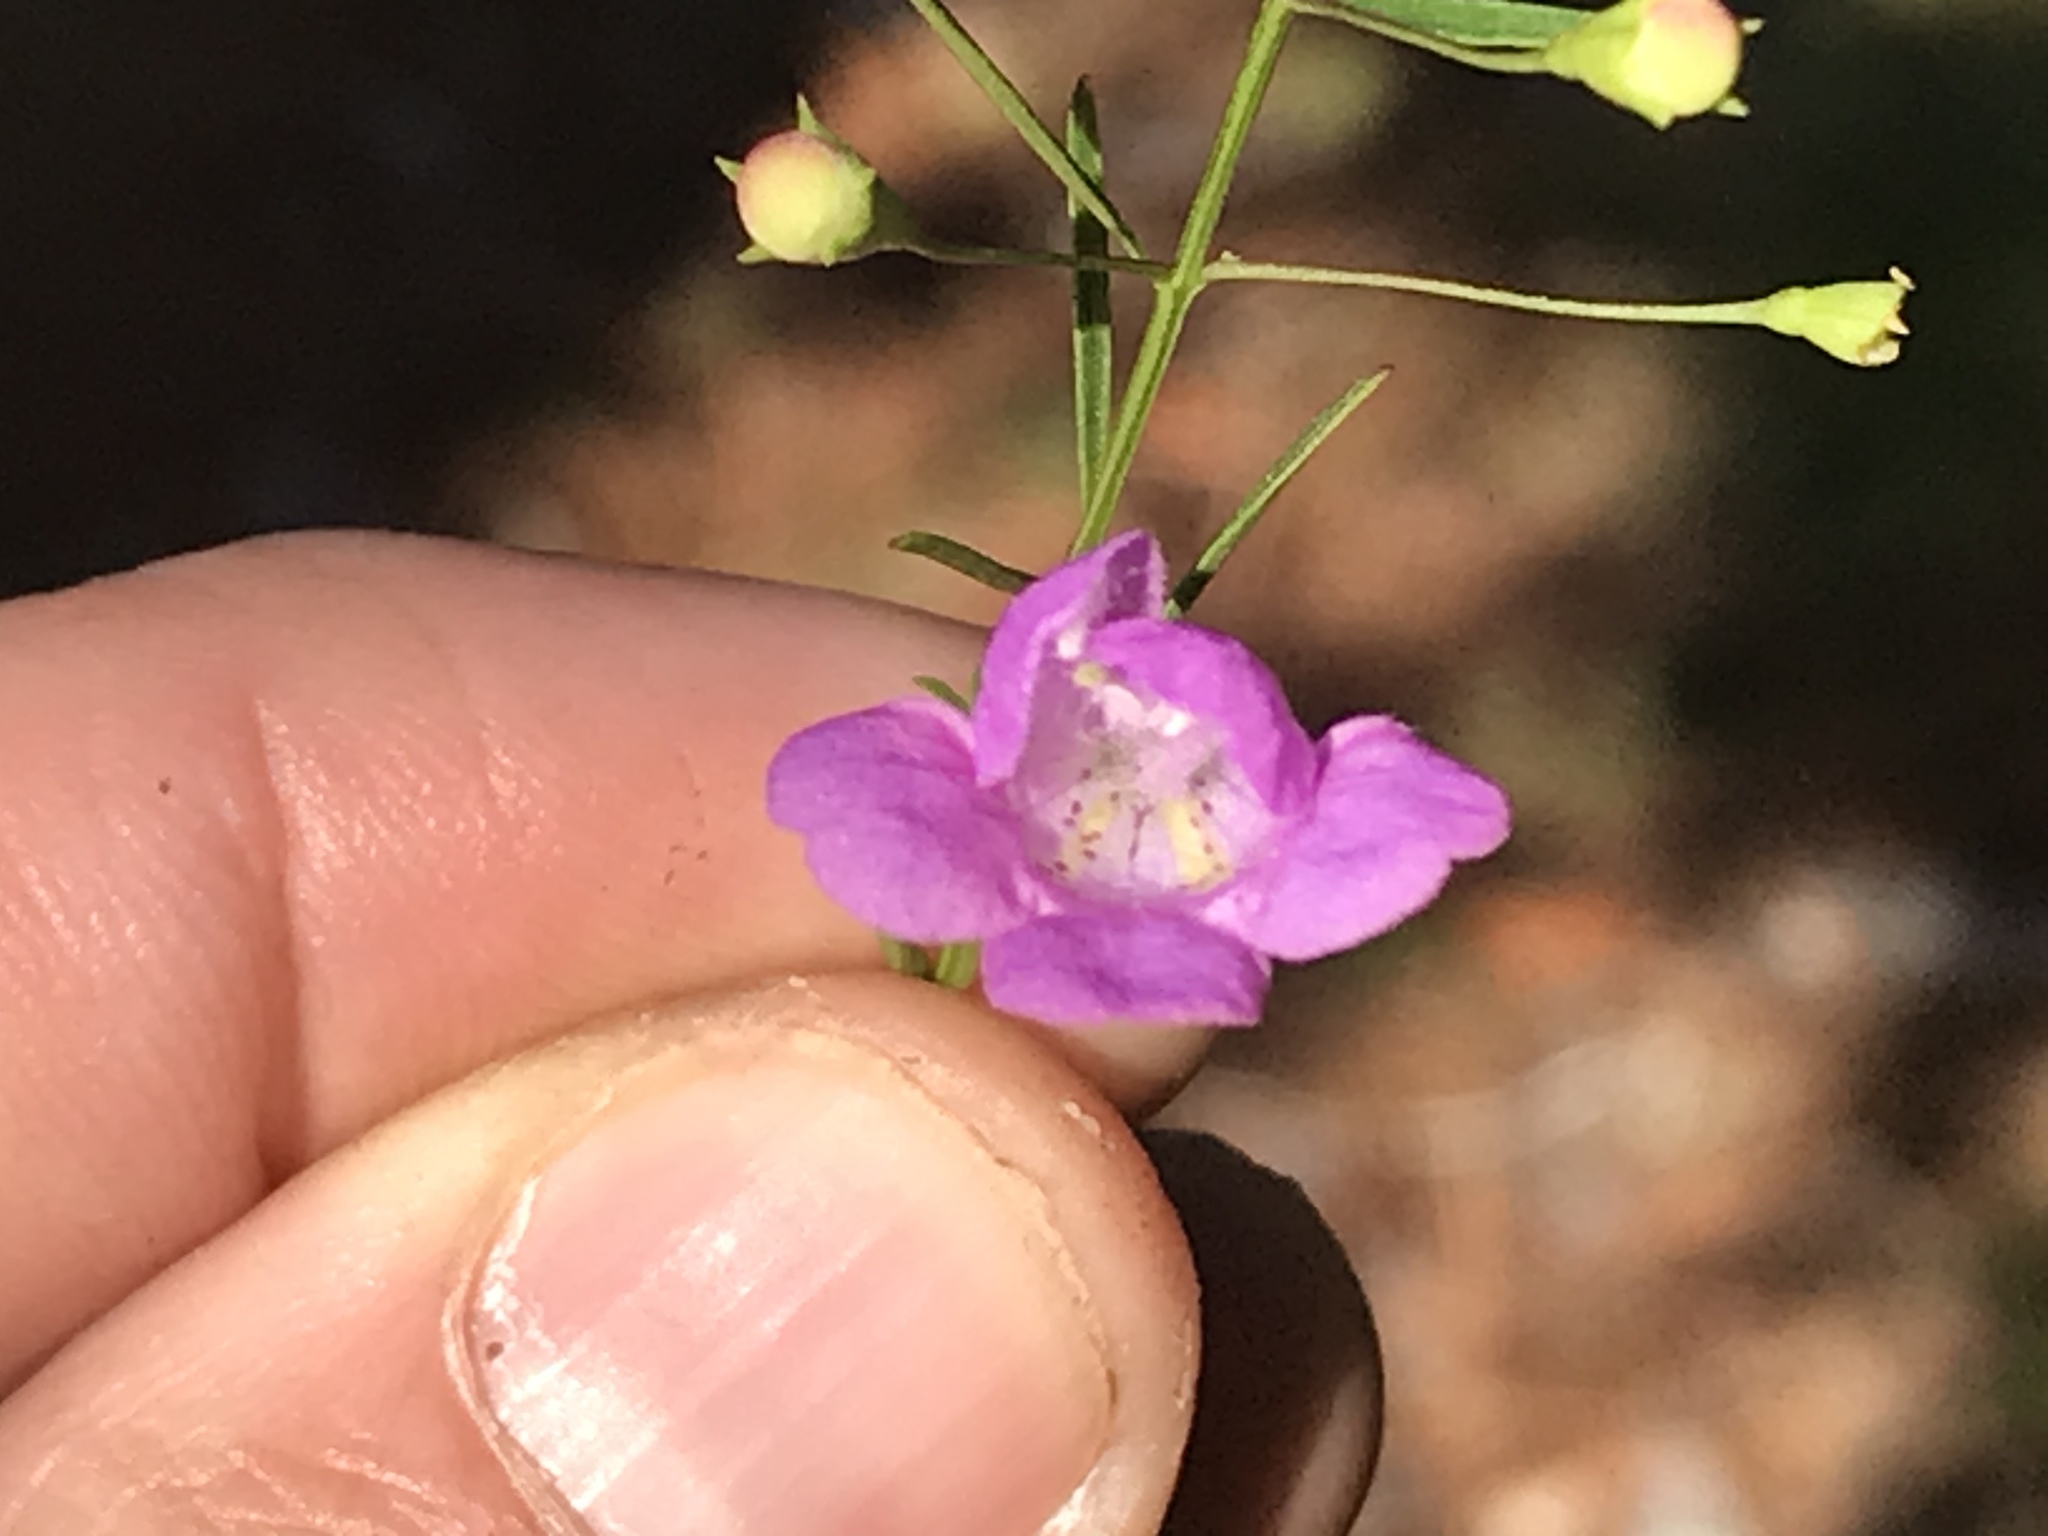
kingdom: Plantae
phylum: Tracheophyta
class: Magnoliopsida
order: Lamiales
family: Orobanchaceae
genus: Agalinis
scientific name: Agalinis tenuifolia
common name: Slender agalinis
